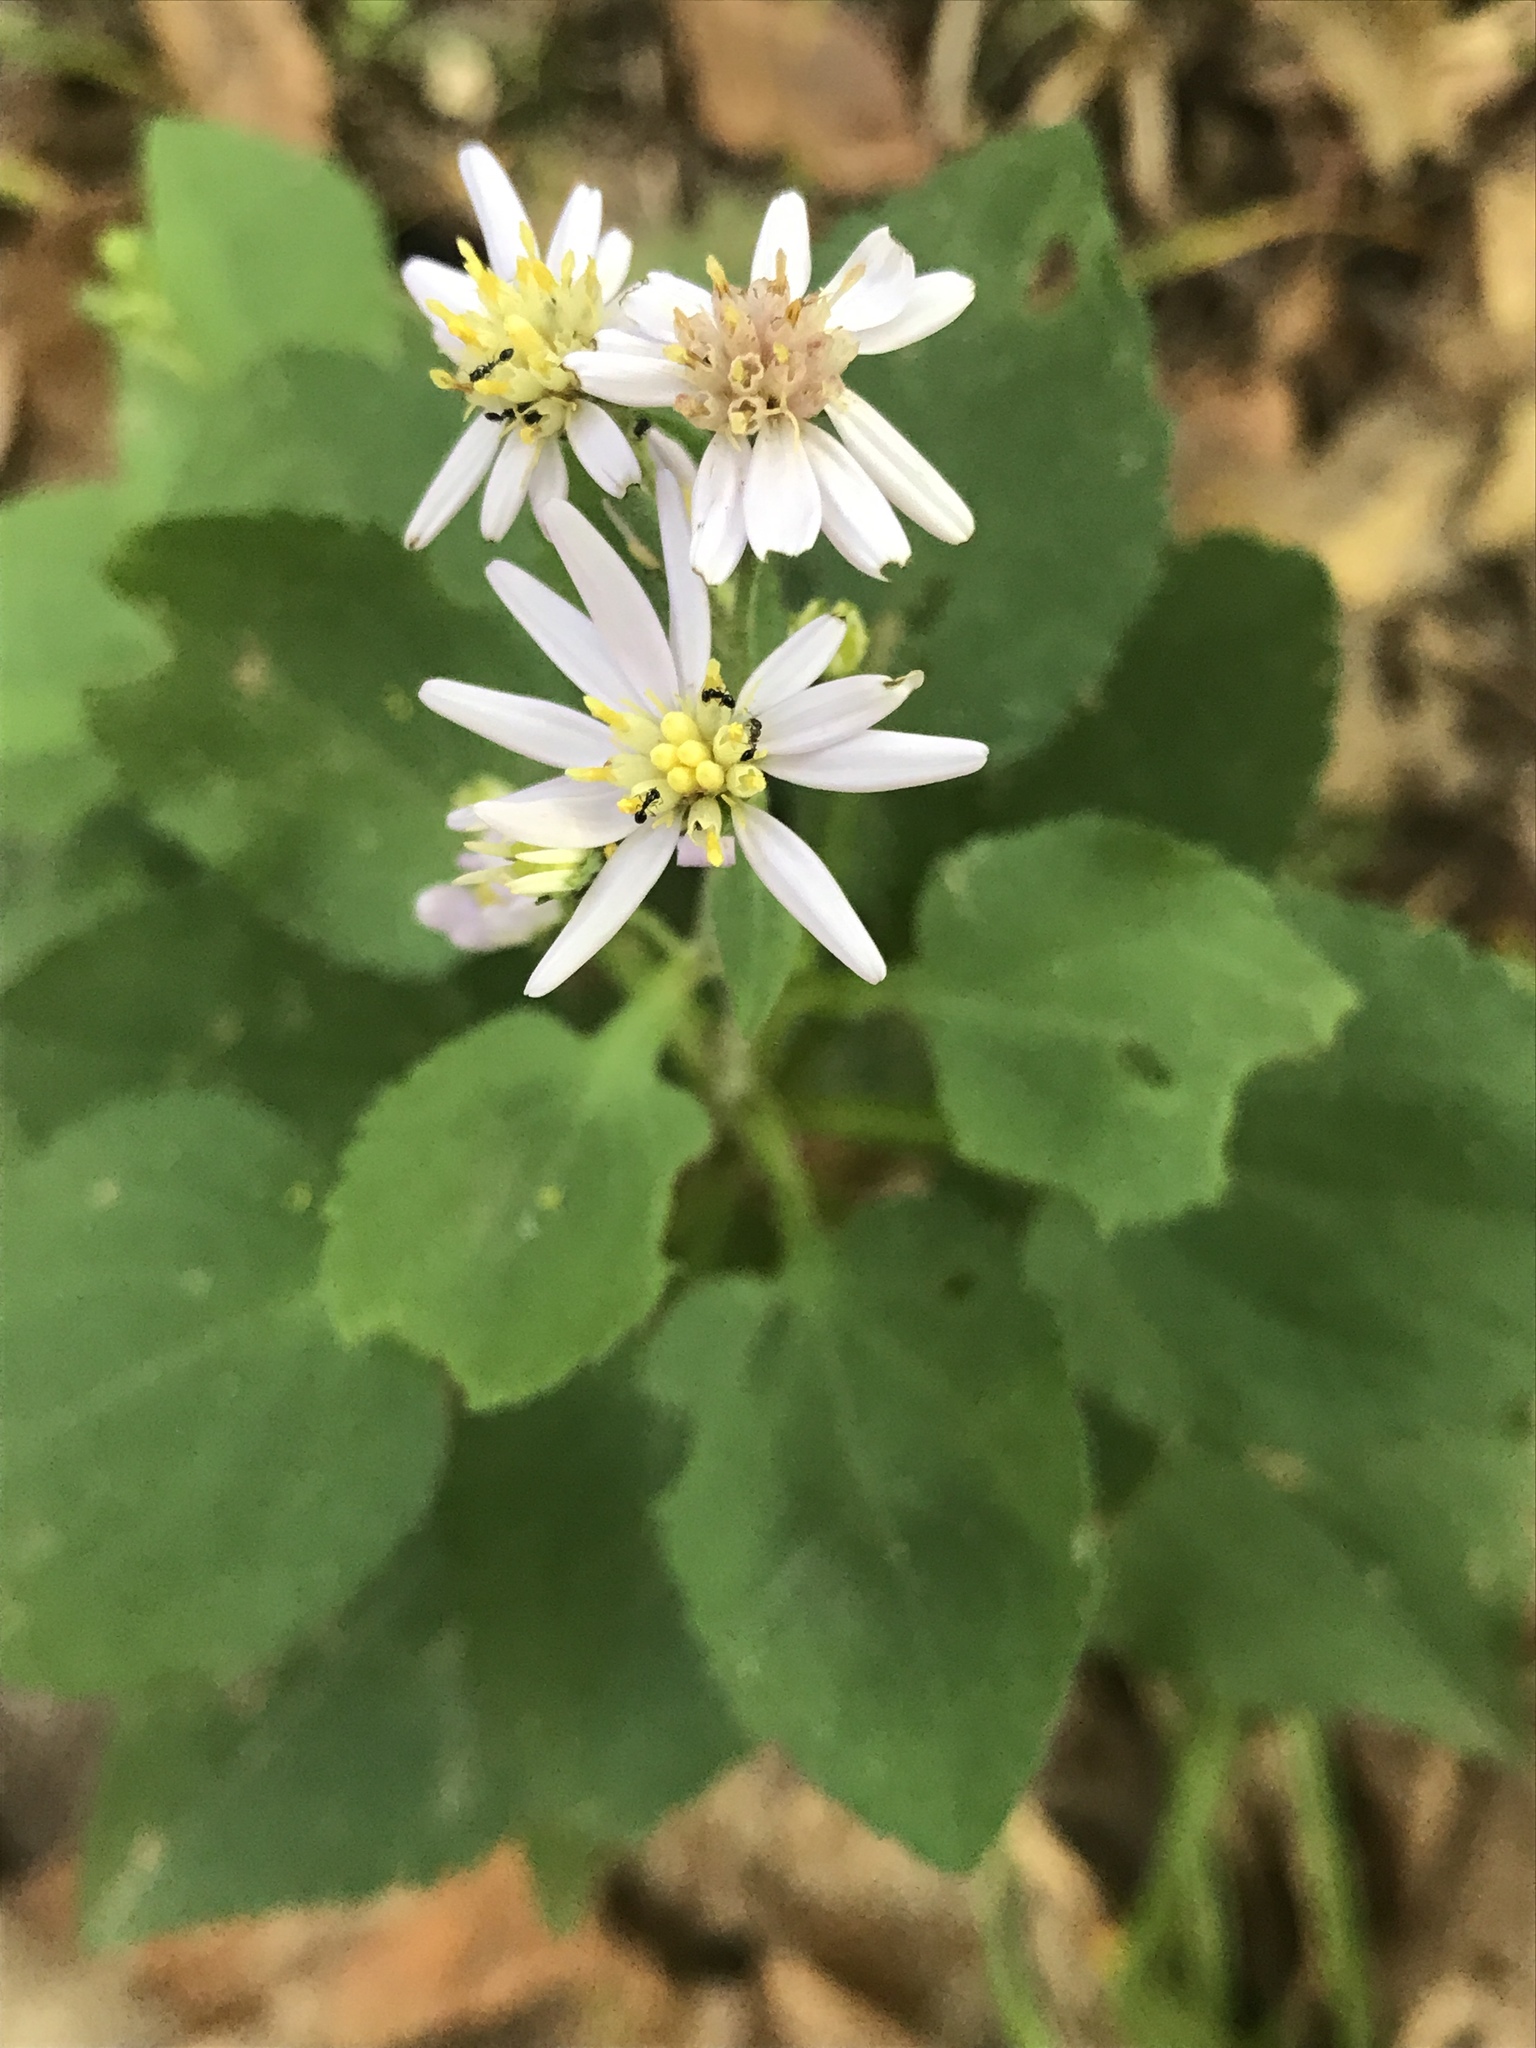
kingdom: Plantae
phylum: Tracheophyta
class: Magnoliopsida
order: Asterales
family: Asteraceae
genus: Symphyotrichum
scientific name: Symphyotrichum drummondii
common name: Drummond's aster
